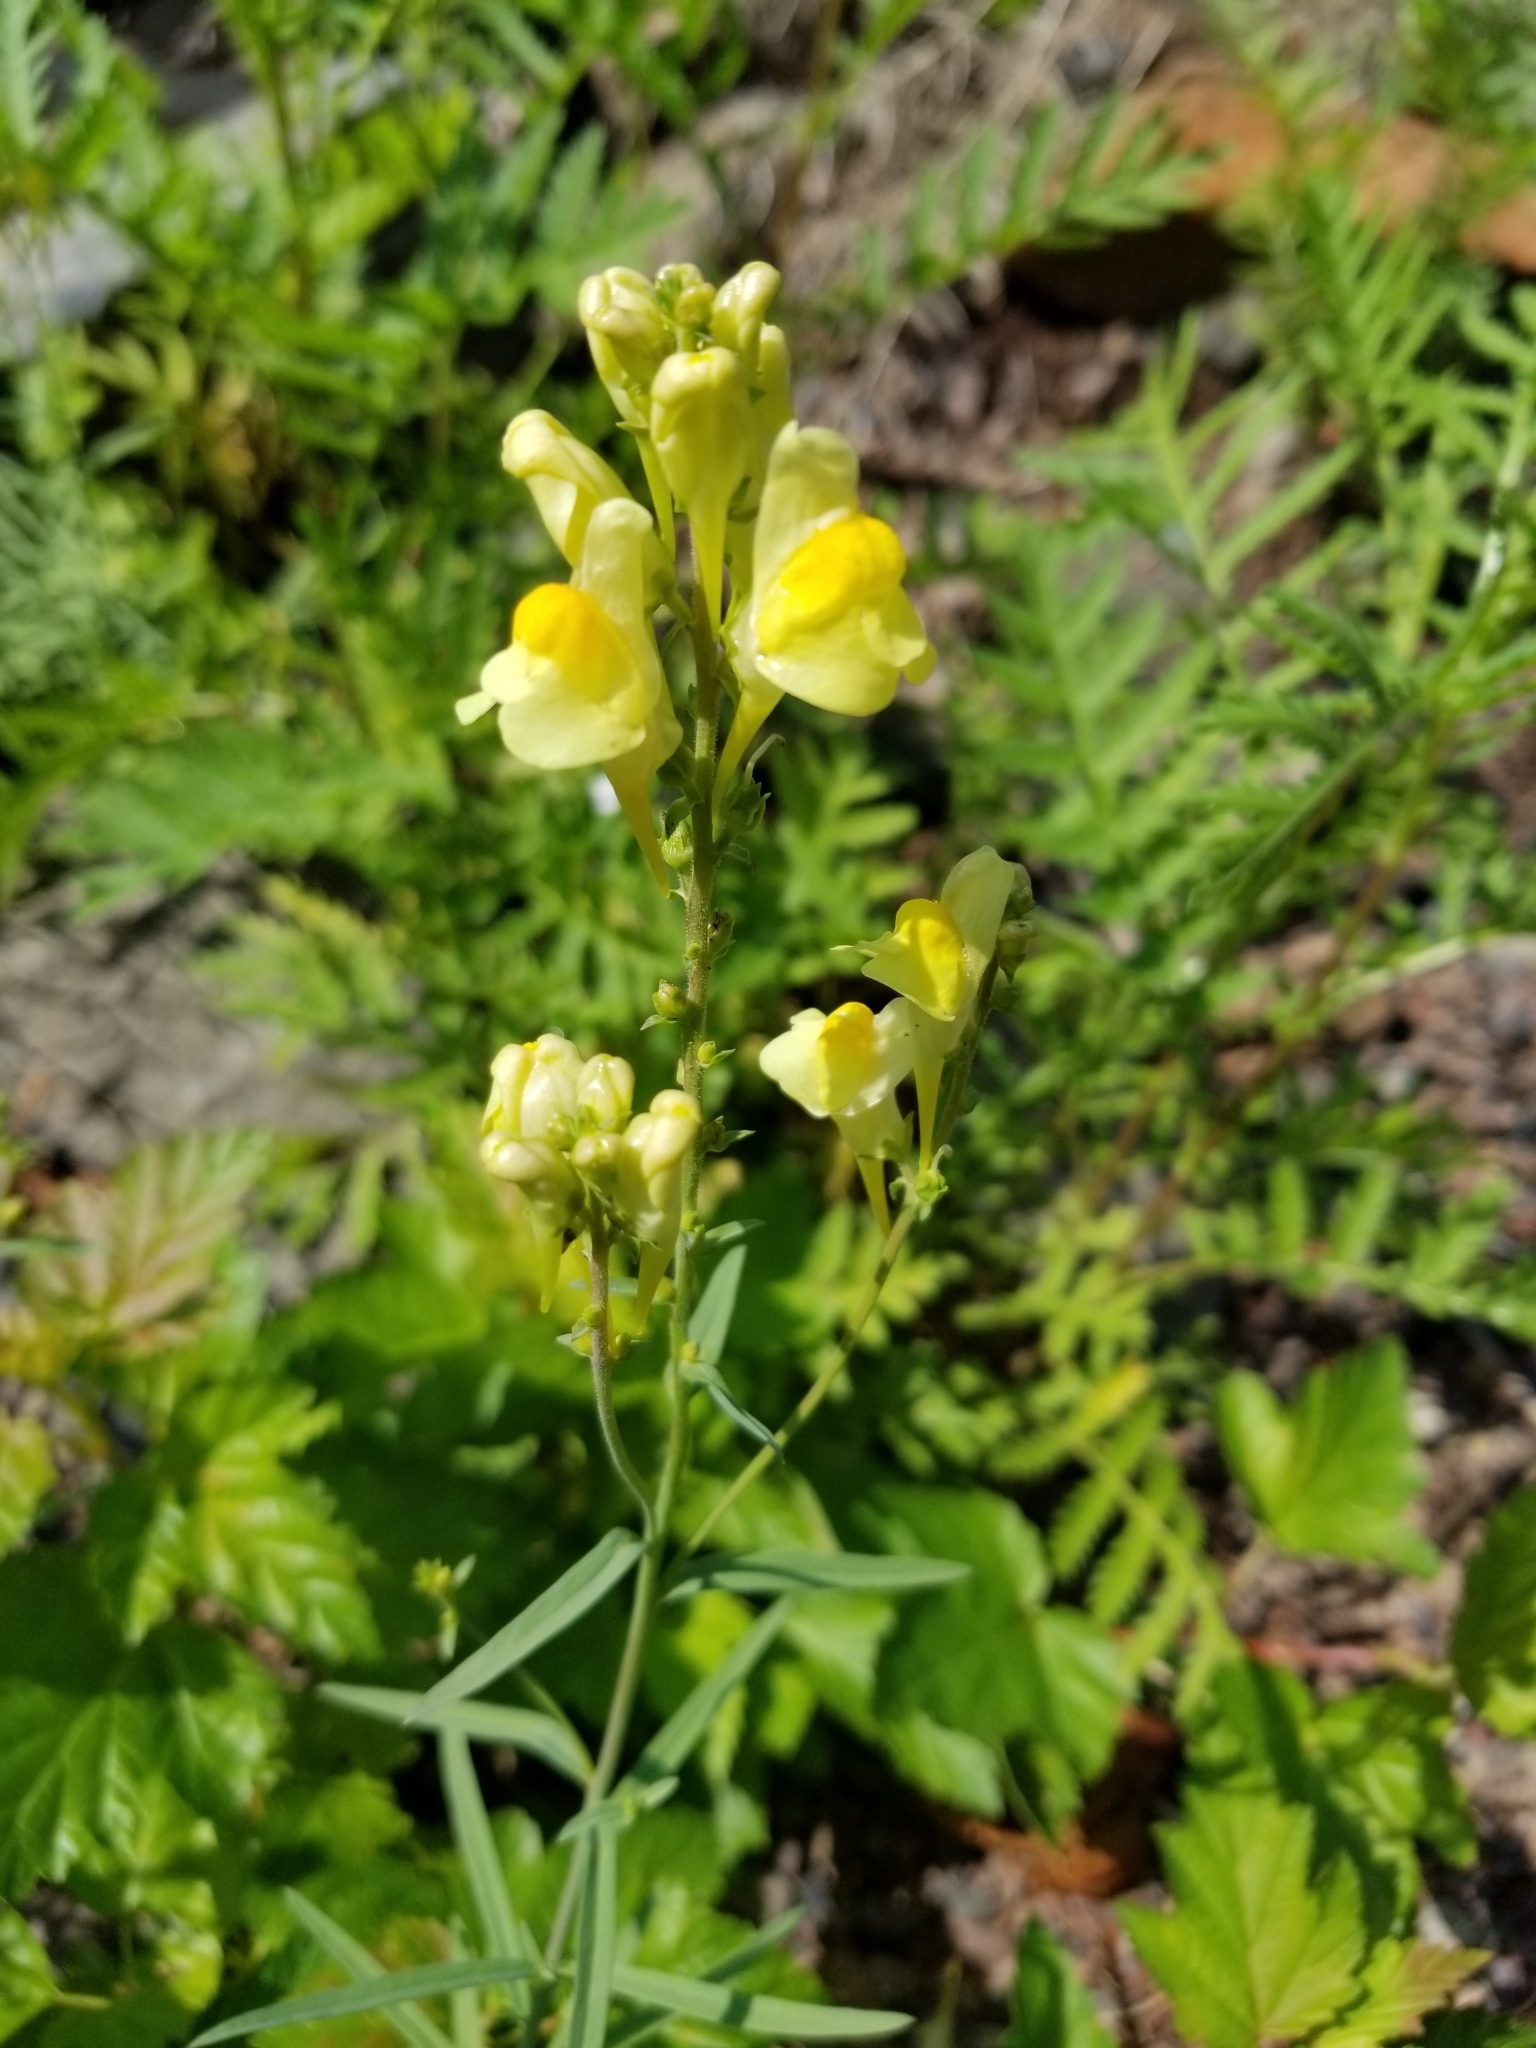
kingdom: Plantae
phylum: Tracheophyta
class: Magnoliopsida
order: Lamiales
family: Plantaginaceae
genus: Linaria
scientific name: Linaria vulgaris
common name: Butter and eggs
